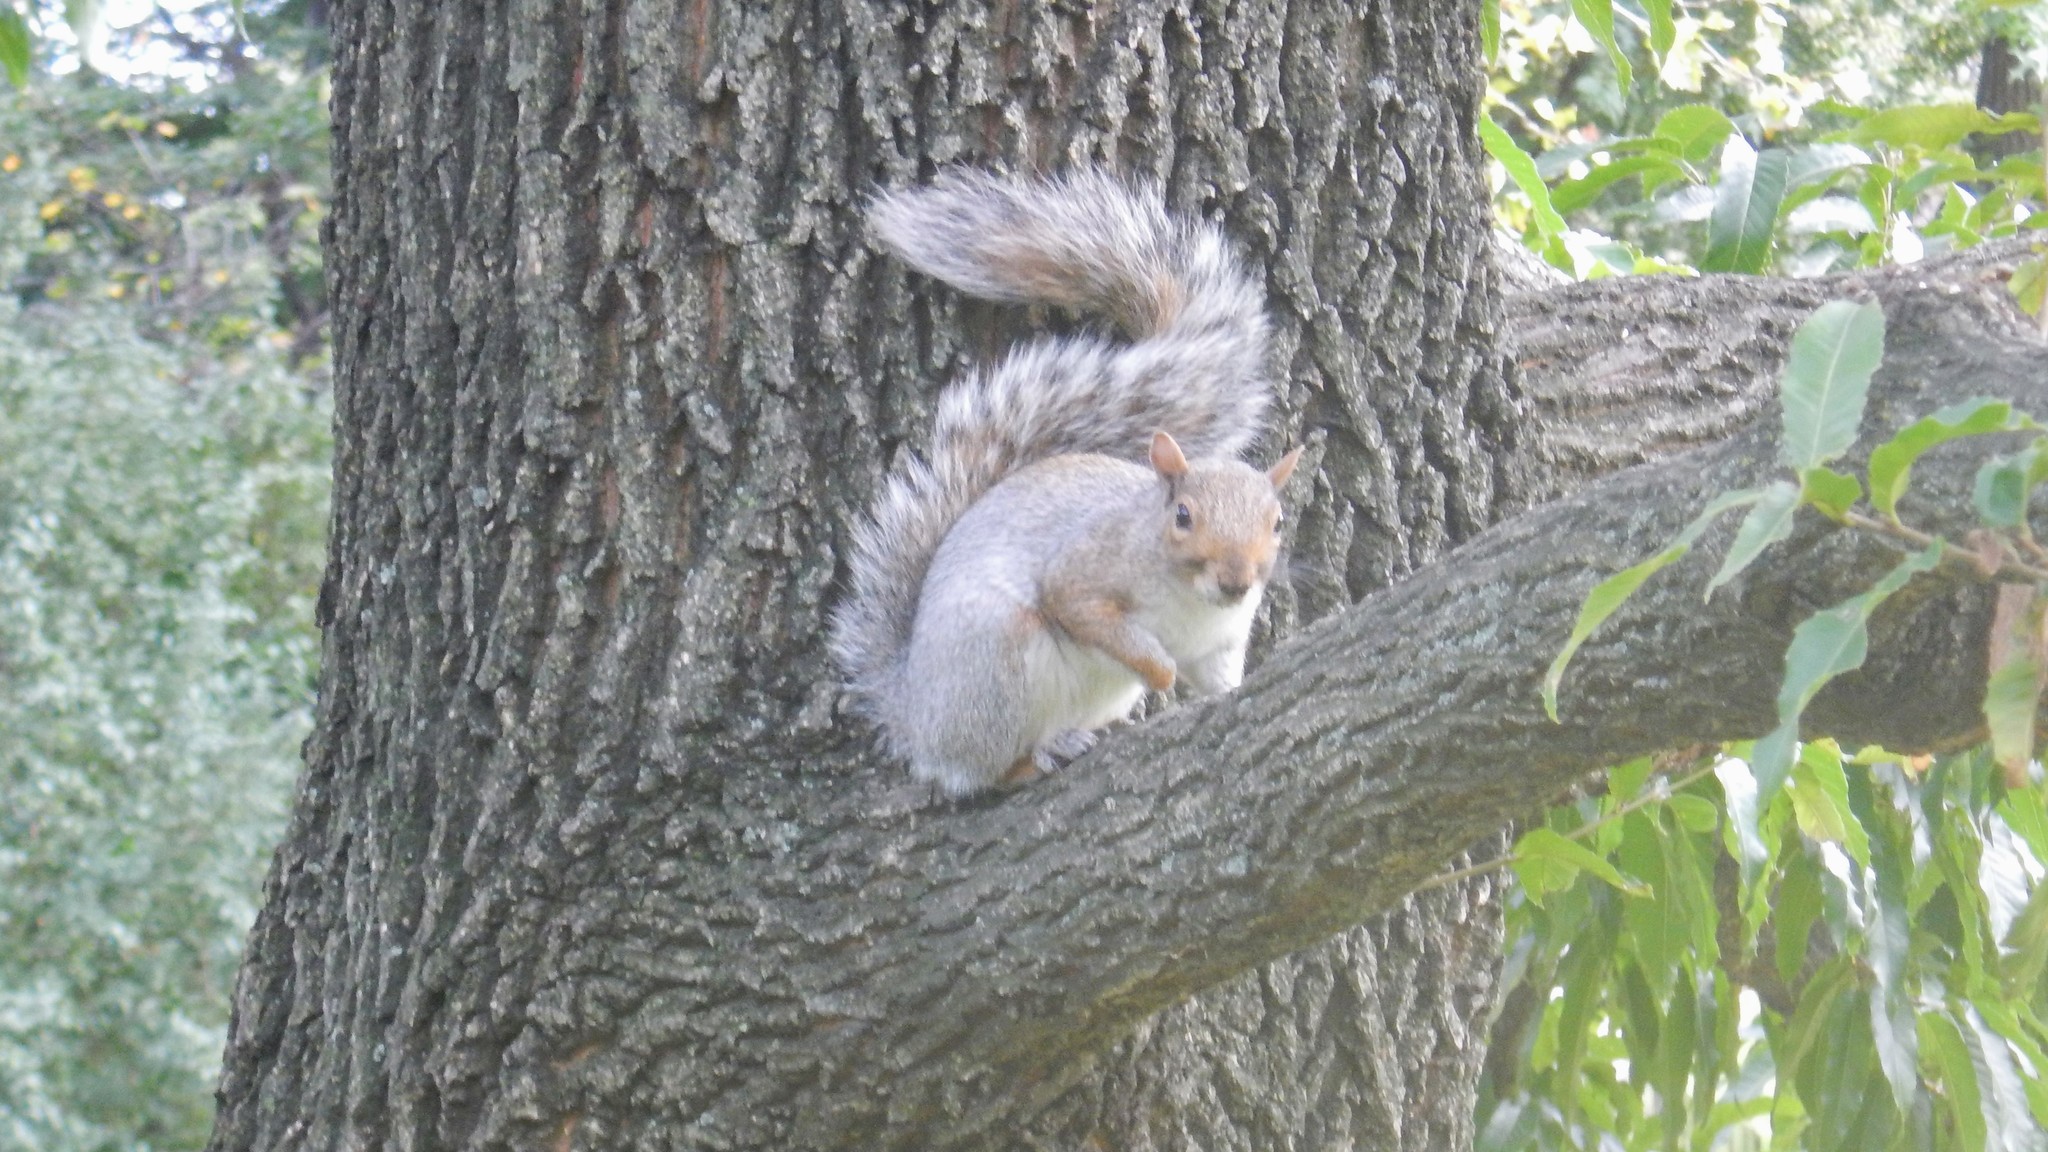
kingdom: Animalia
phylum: Chordata
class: Mammalia
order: Rodentia
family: Sciuridae
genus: Sciurus
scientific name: Sciurus carolinensis
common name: Eastern gray squirrel
